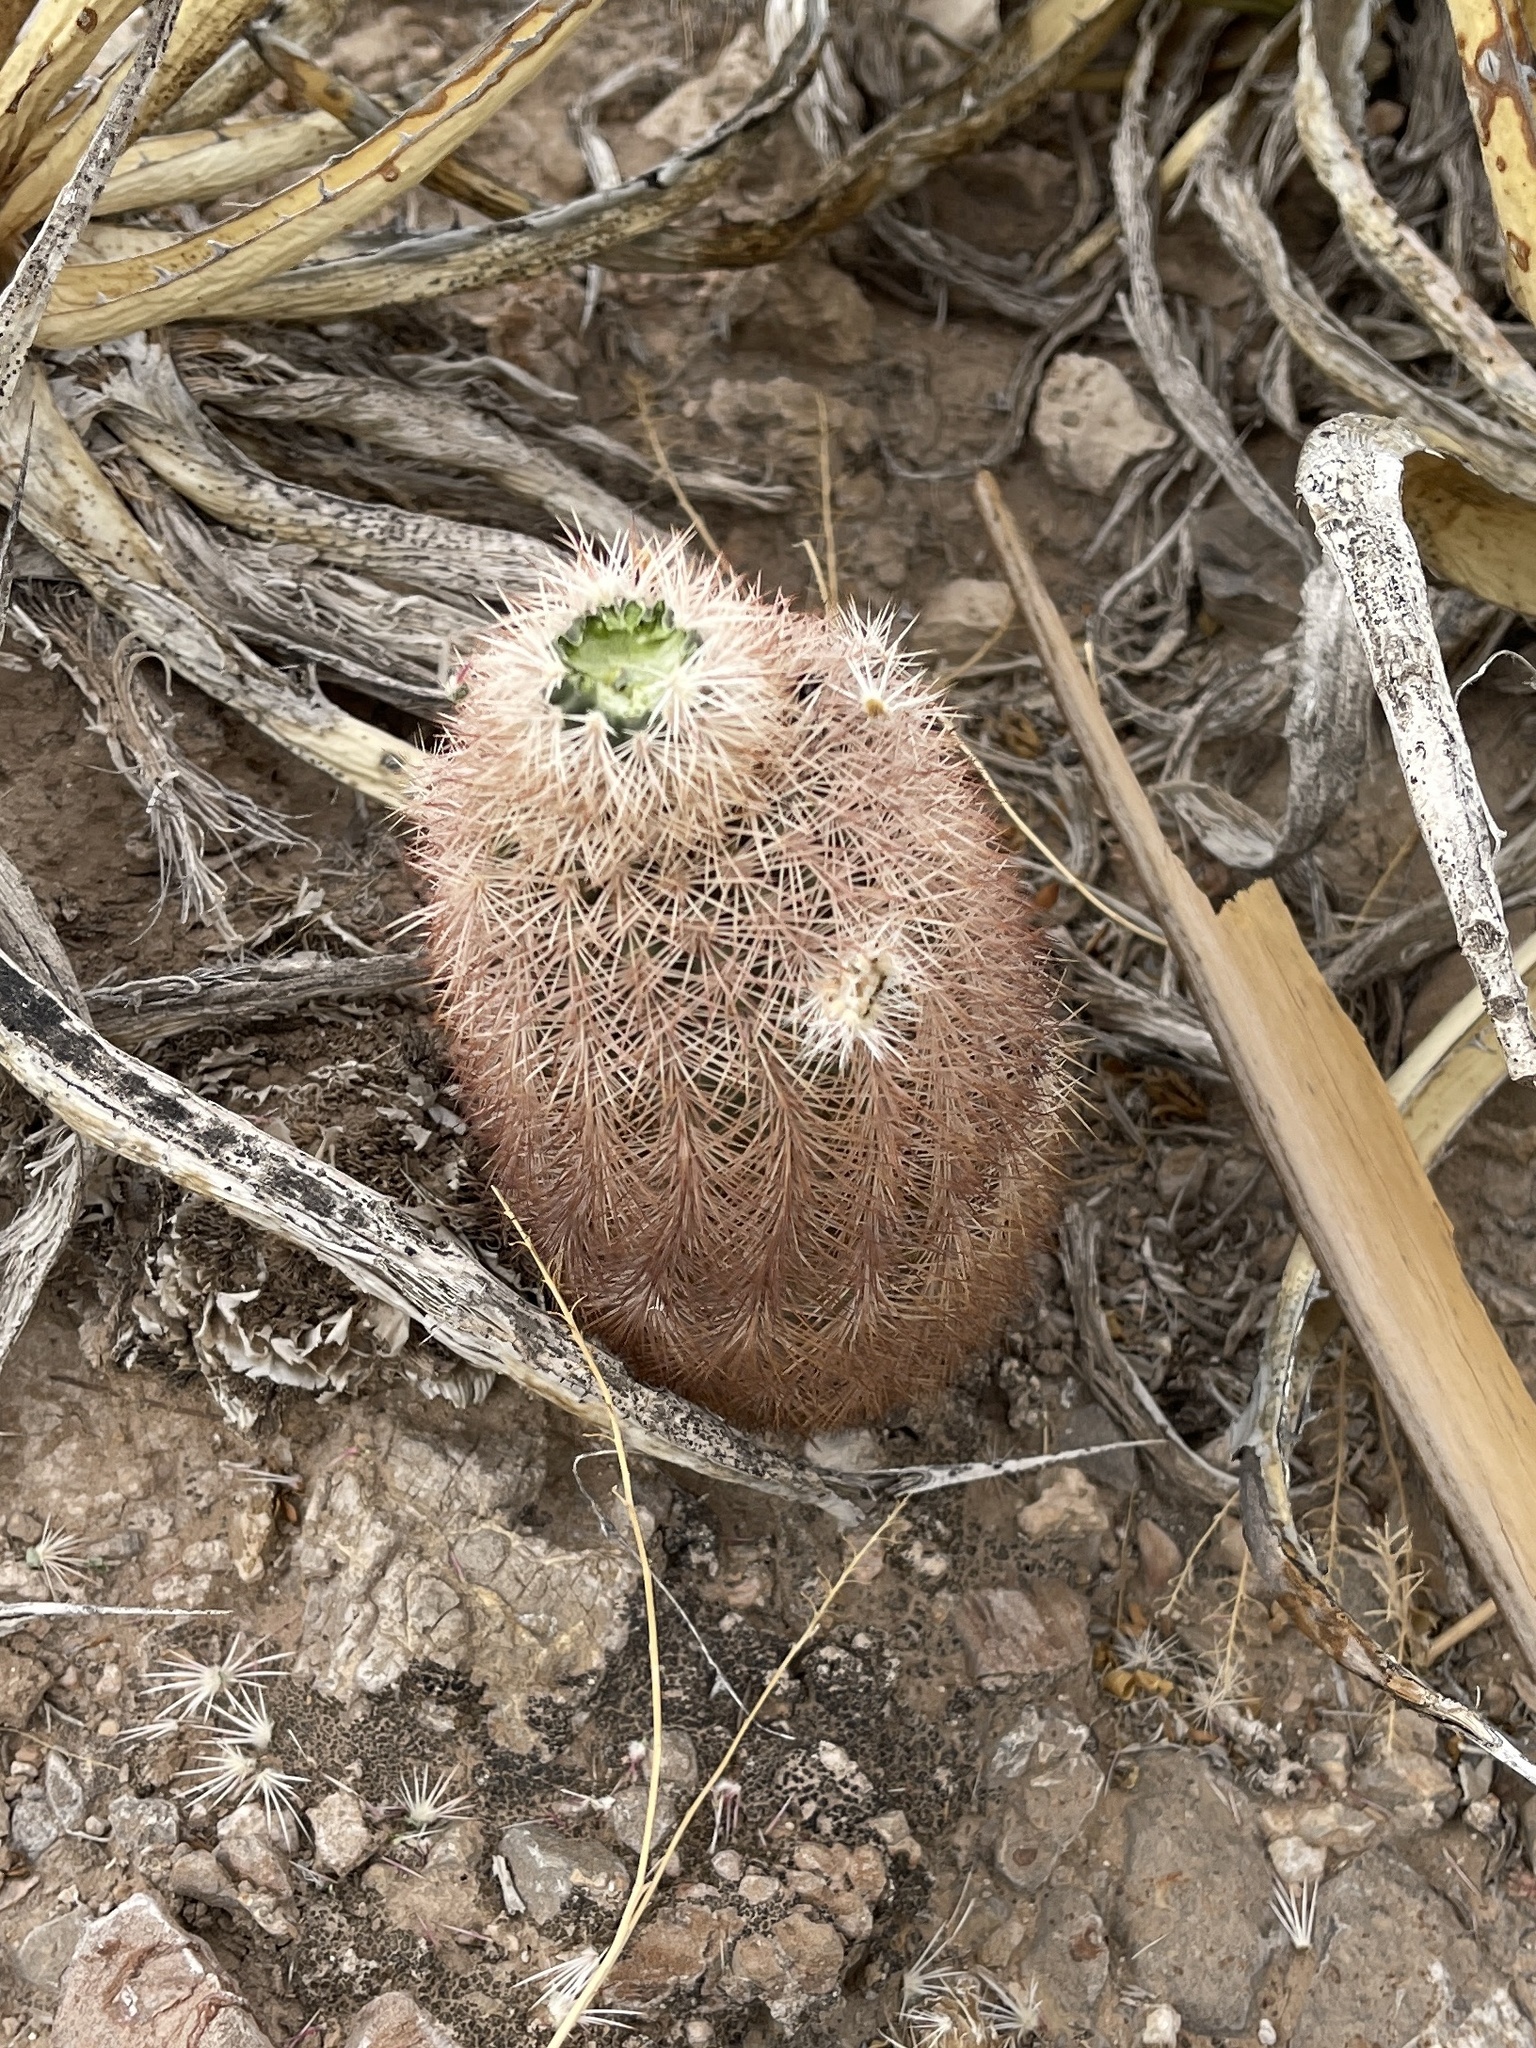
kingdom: Plantae
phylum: Tracheophyta
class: Magnoliopsida
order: Caryophyllales
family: Cactaceae
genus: Echinocereus
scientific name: Echinocereus dasyacanthus
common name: Spiny hedgehog cactus
